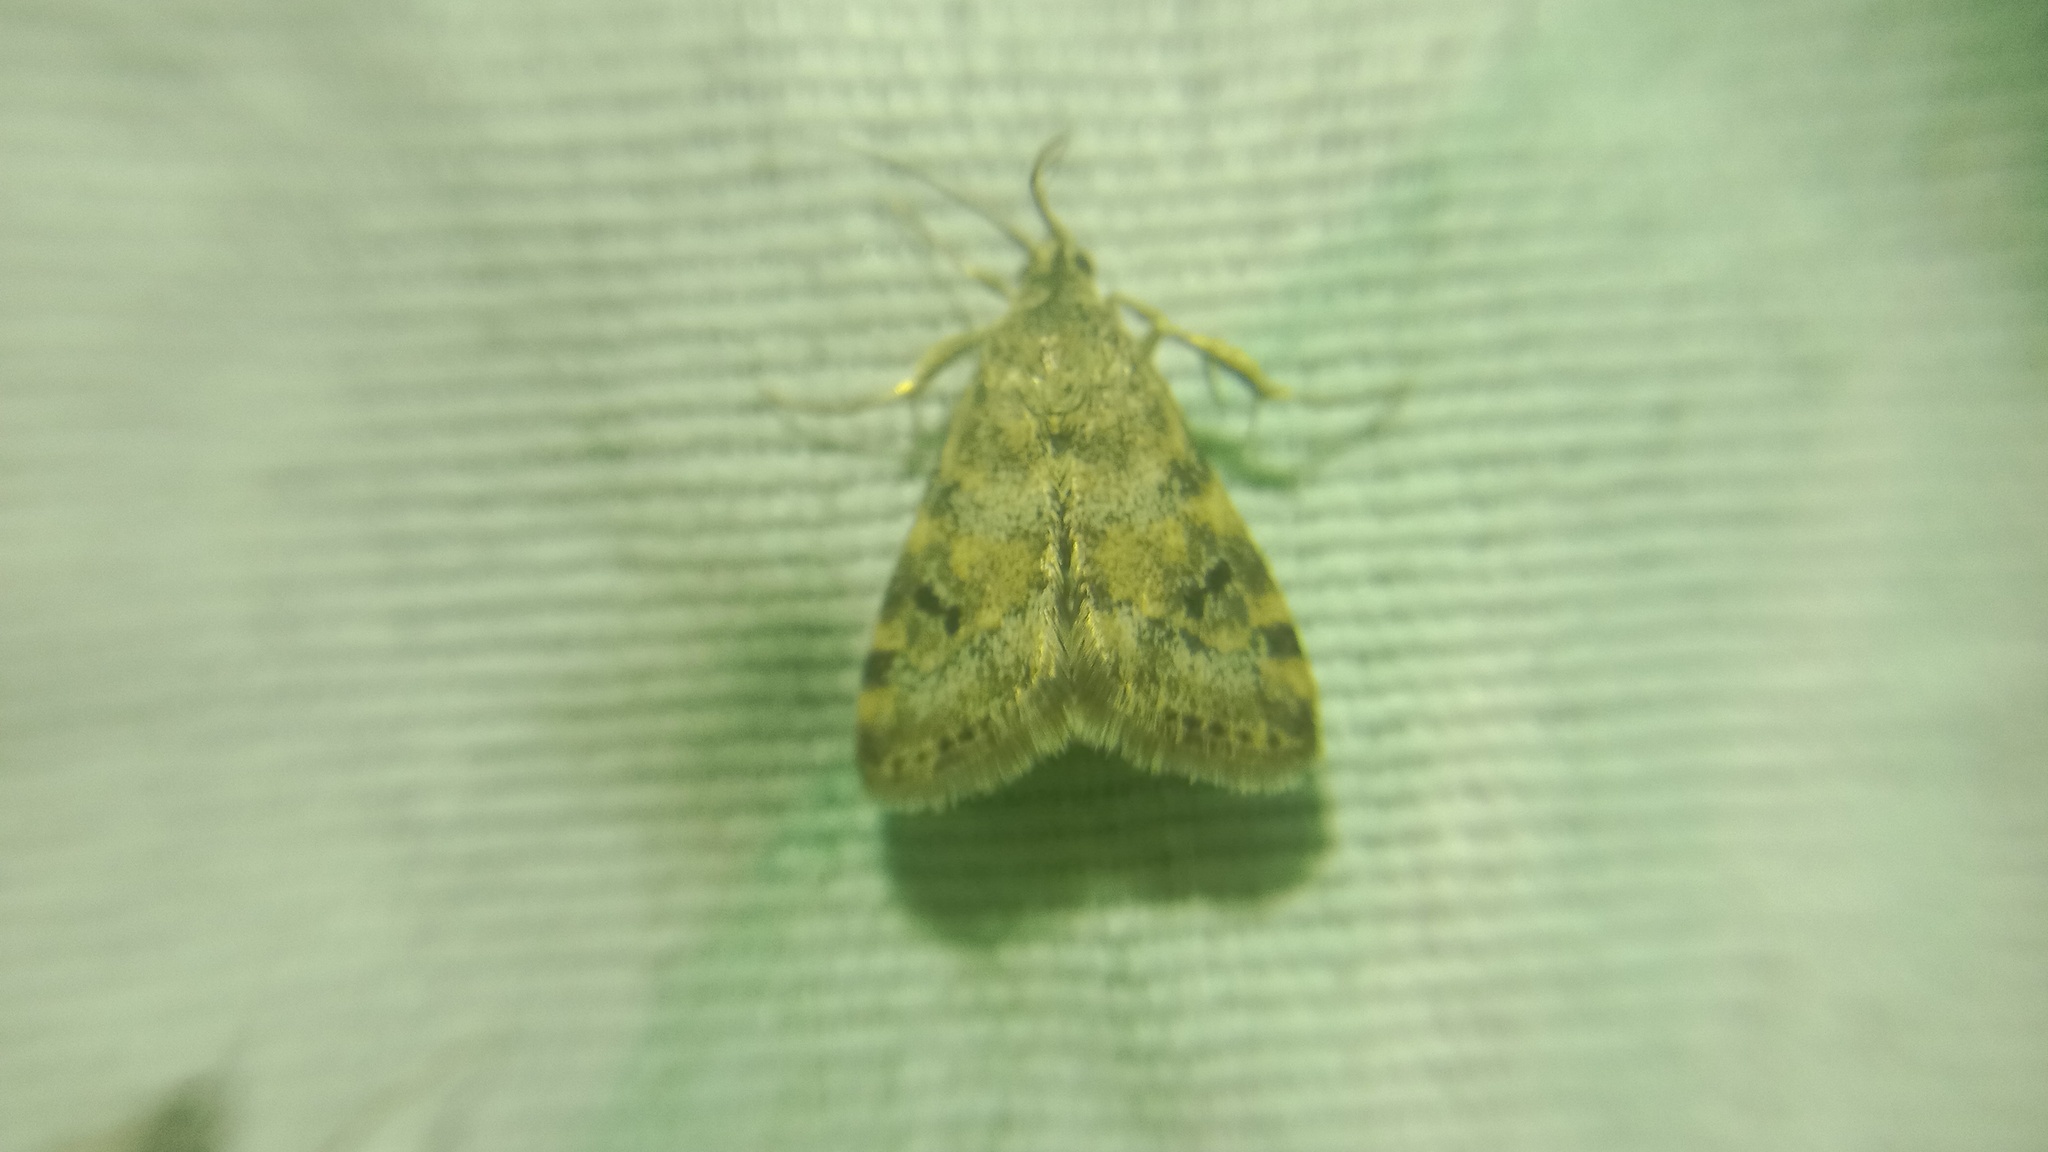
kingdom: Animalia
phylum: Arthropoda
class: Insecta
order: Lepidoptera
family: Crambidae
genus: Noctuelia
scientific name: Noctuelia Aporodes floralis
